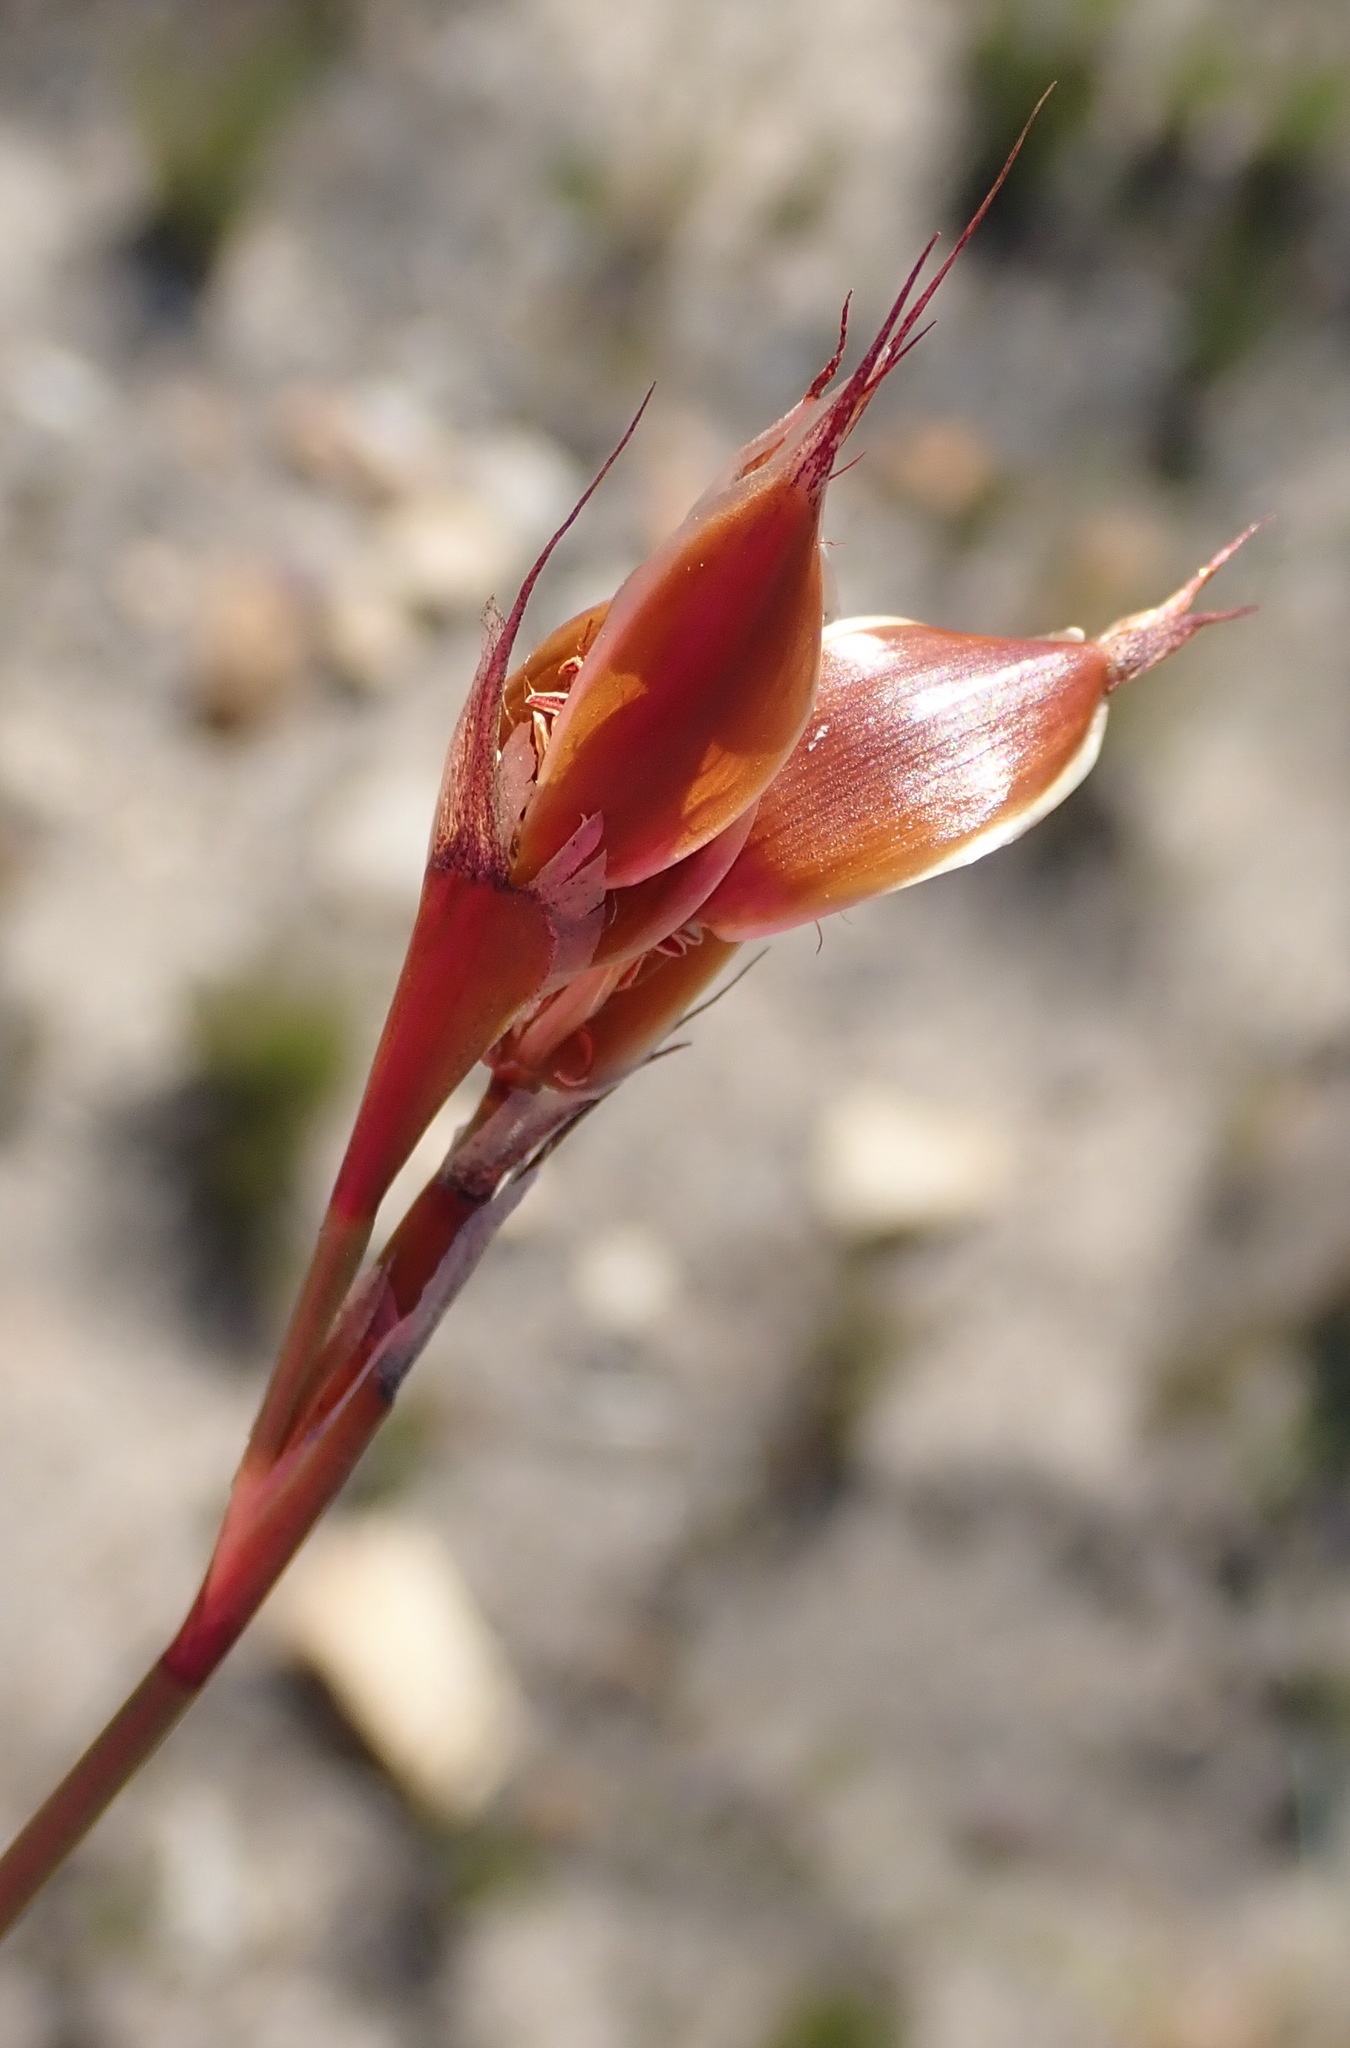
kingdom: Plantae
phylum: Tracheophyta
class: Liliopsida
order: Poales
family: Restionaceae
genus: Willdenowia
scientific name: Willdenowia teres
